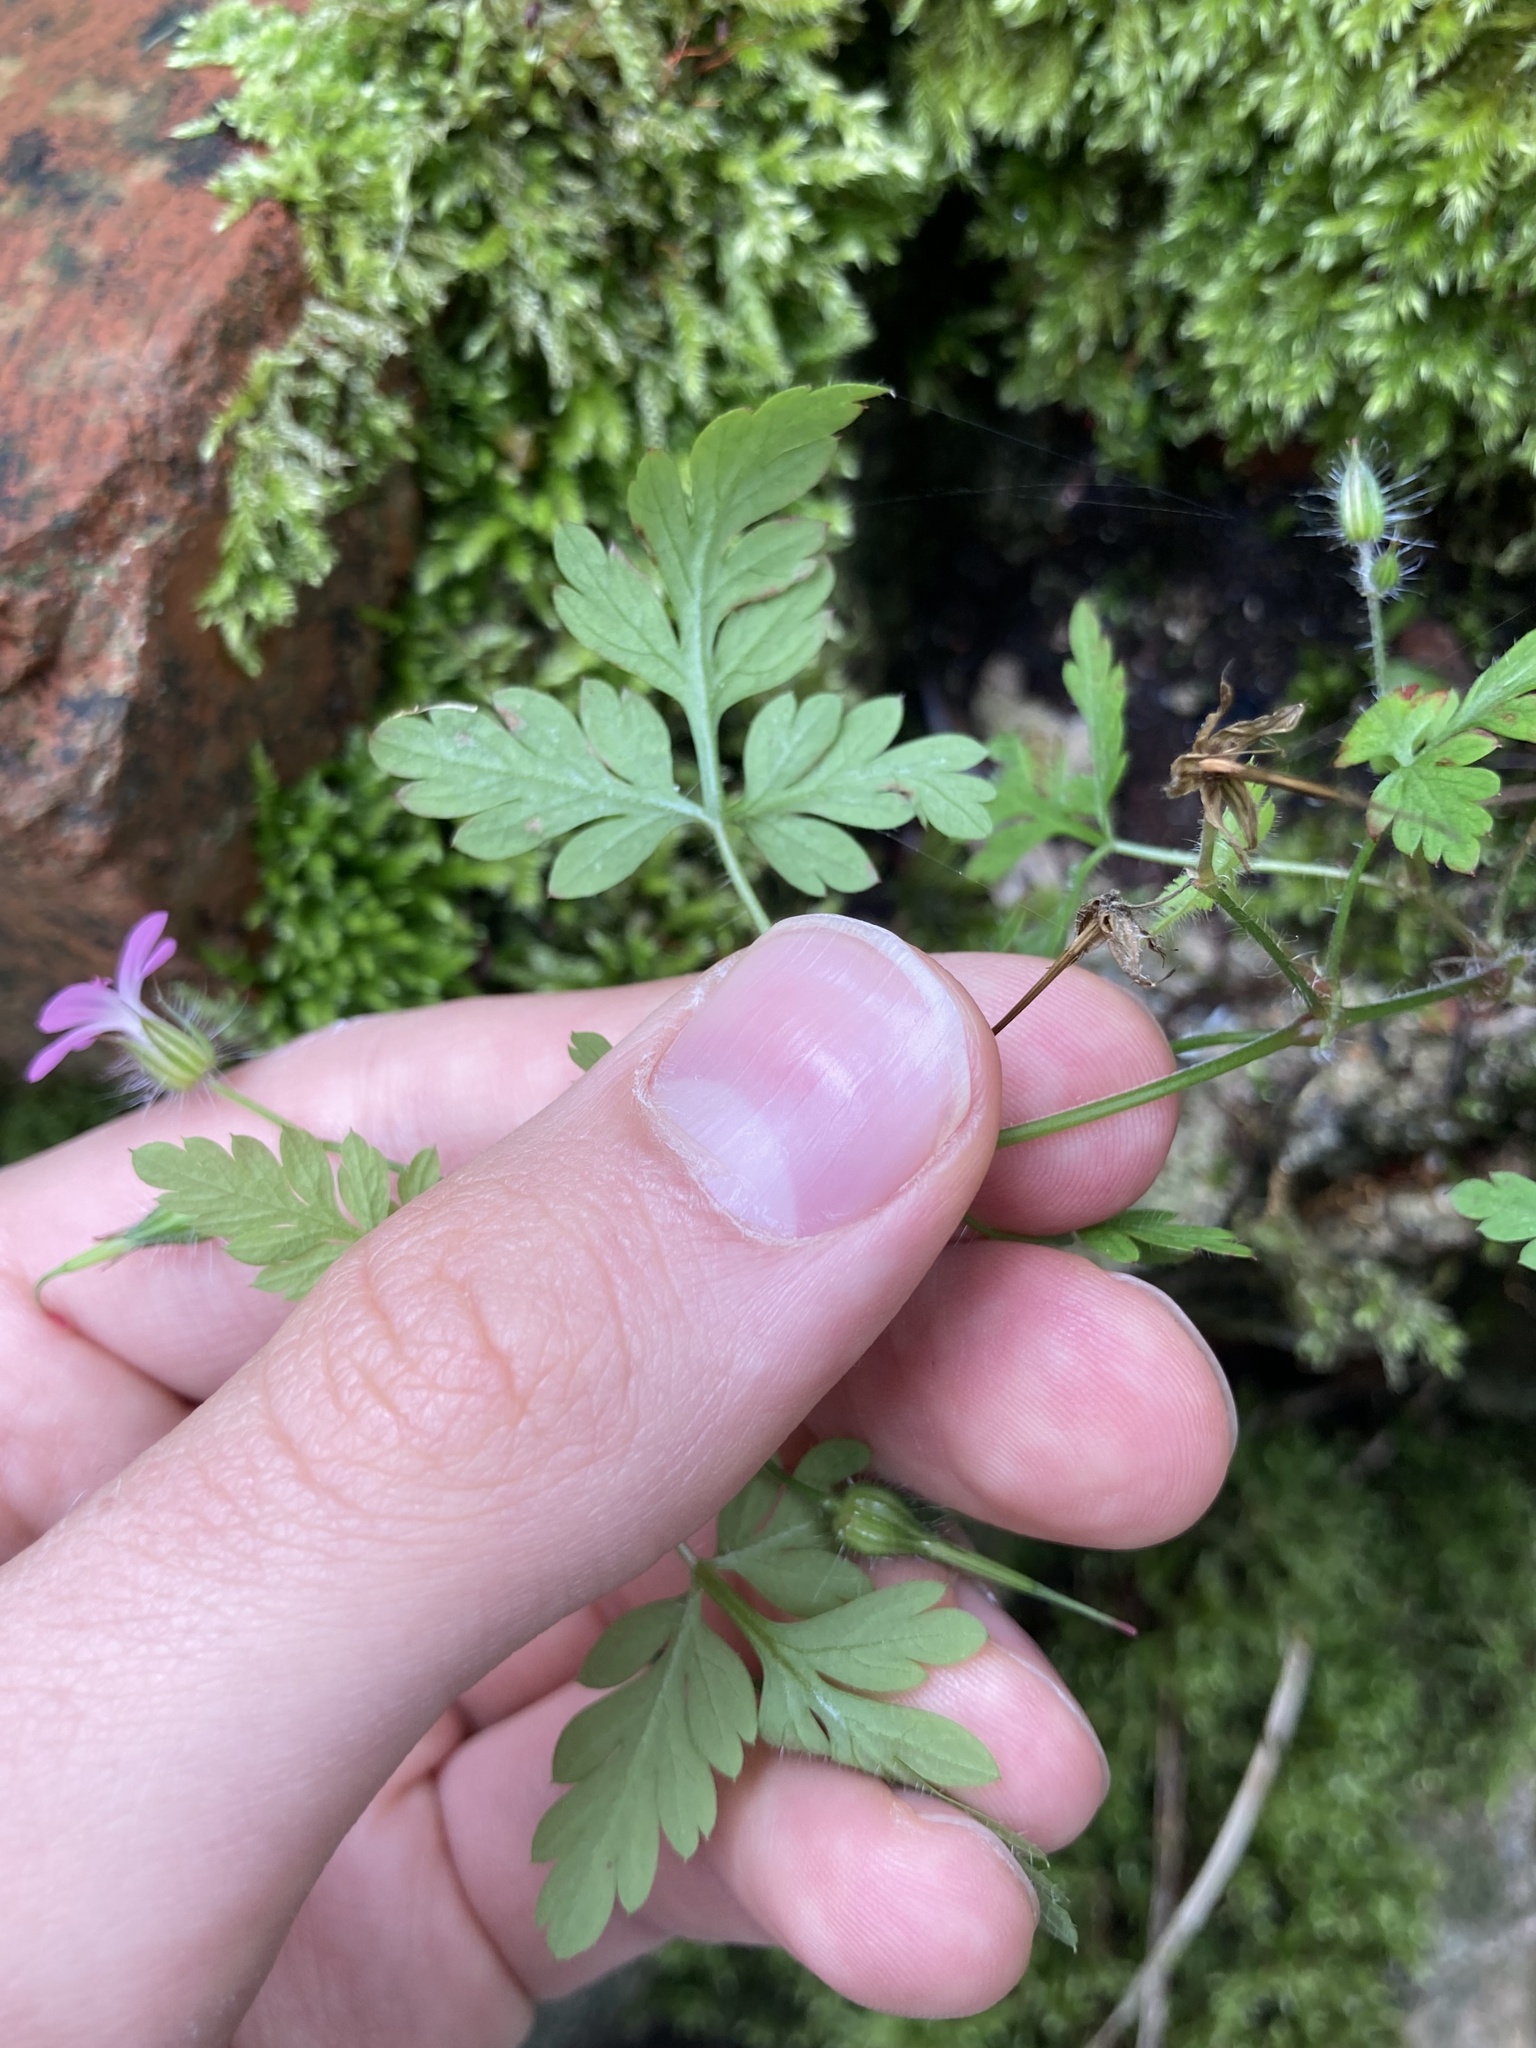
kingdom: Plantae
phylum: Tracheophyta
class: Magnoliopsida
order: Geraniales
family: Geraniaceae
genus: Geranium
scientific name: Geranium robertianum
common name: Herb-robert
